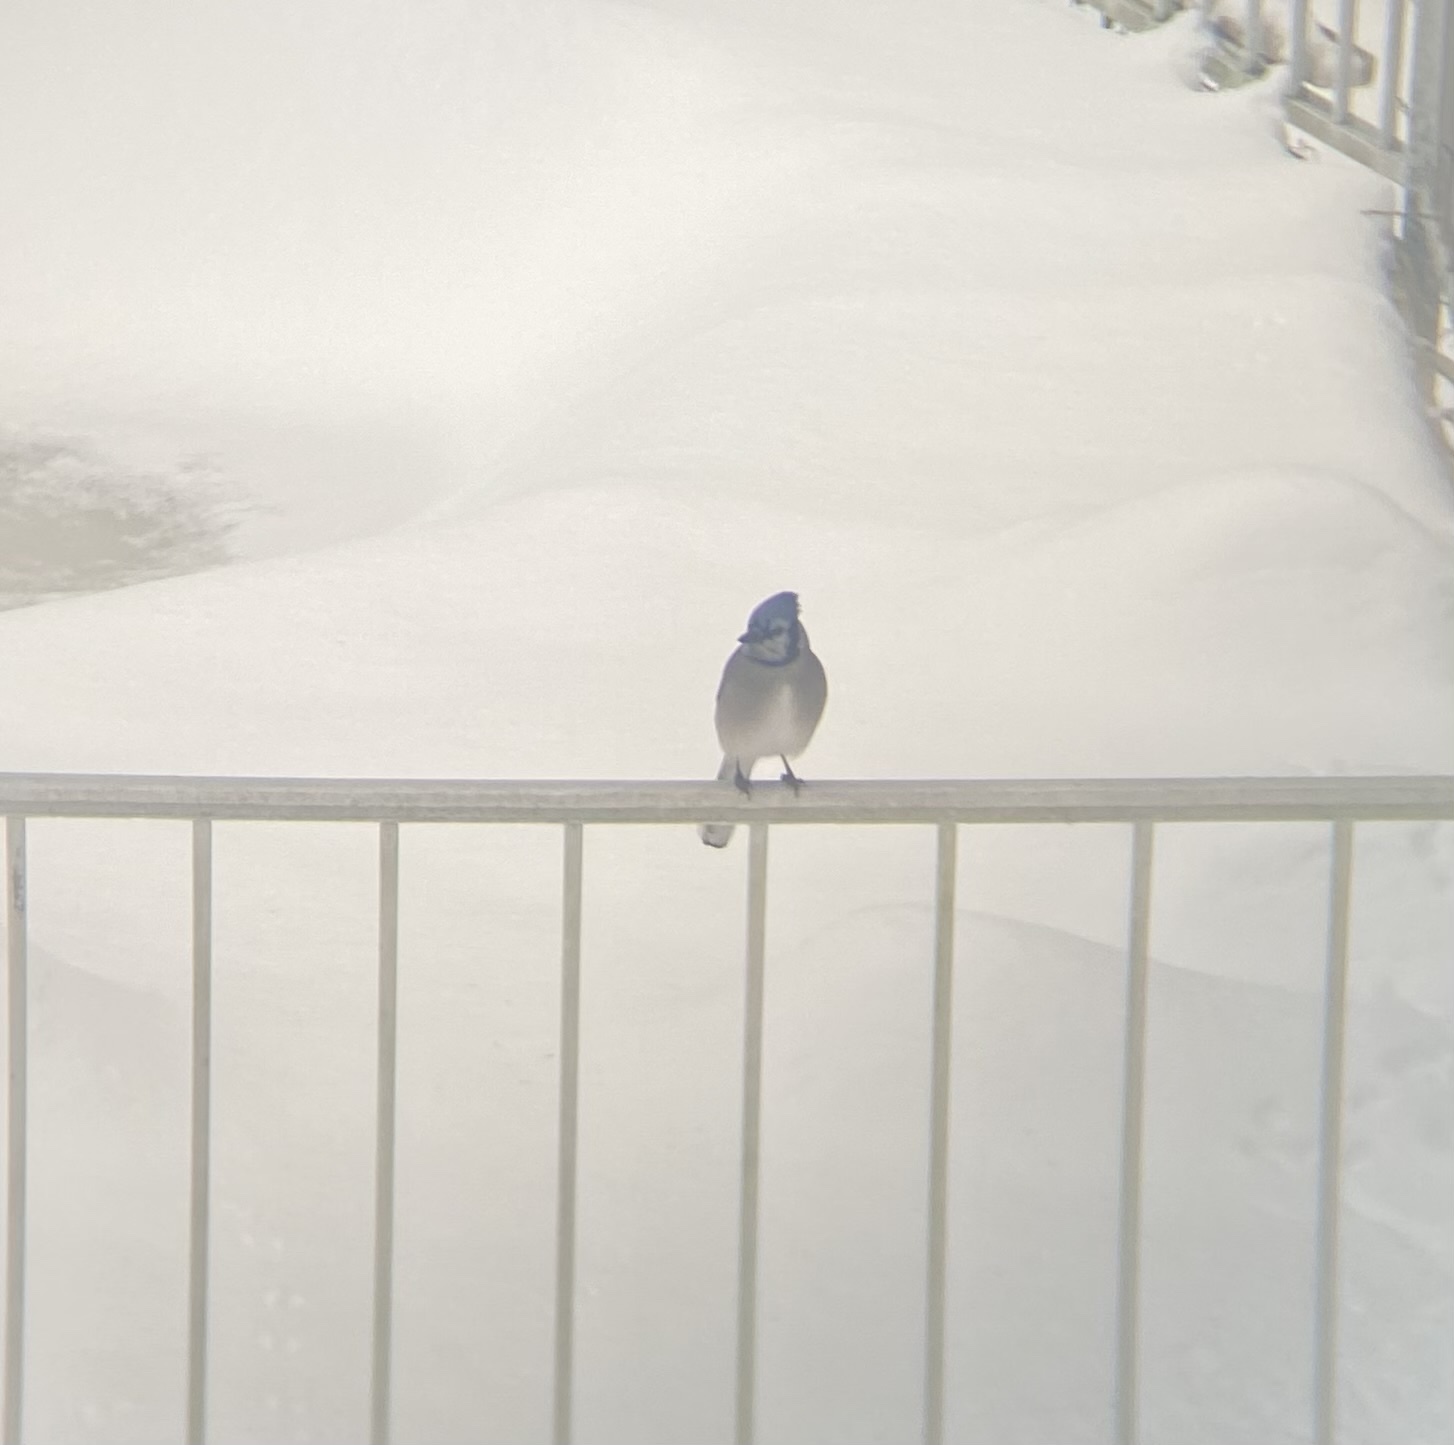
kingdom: Animalia
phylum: Chordata
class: Aves
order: Passeriformes
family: Corvidae
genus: Cyanocitta
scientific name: Cyanocitta cristata
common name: Blue jay
